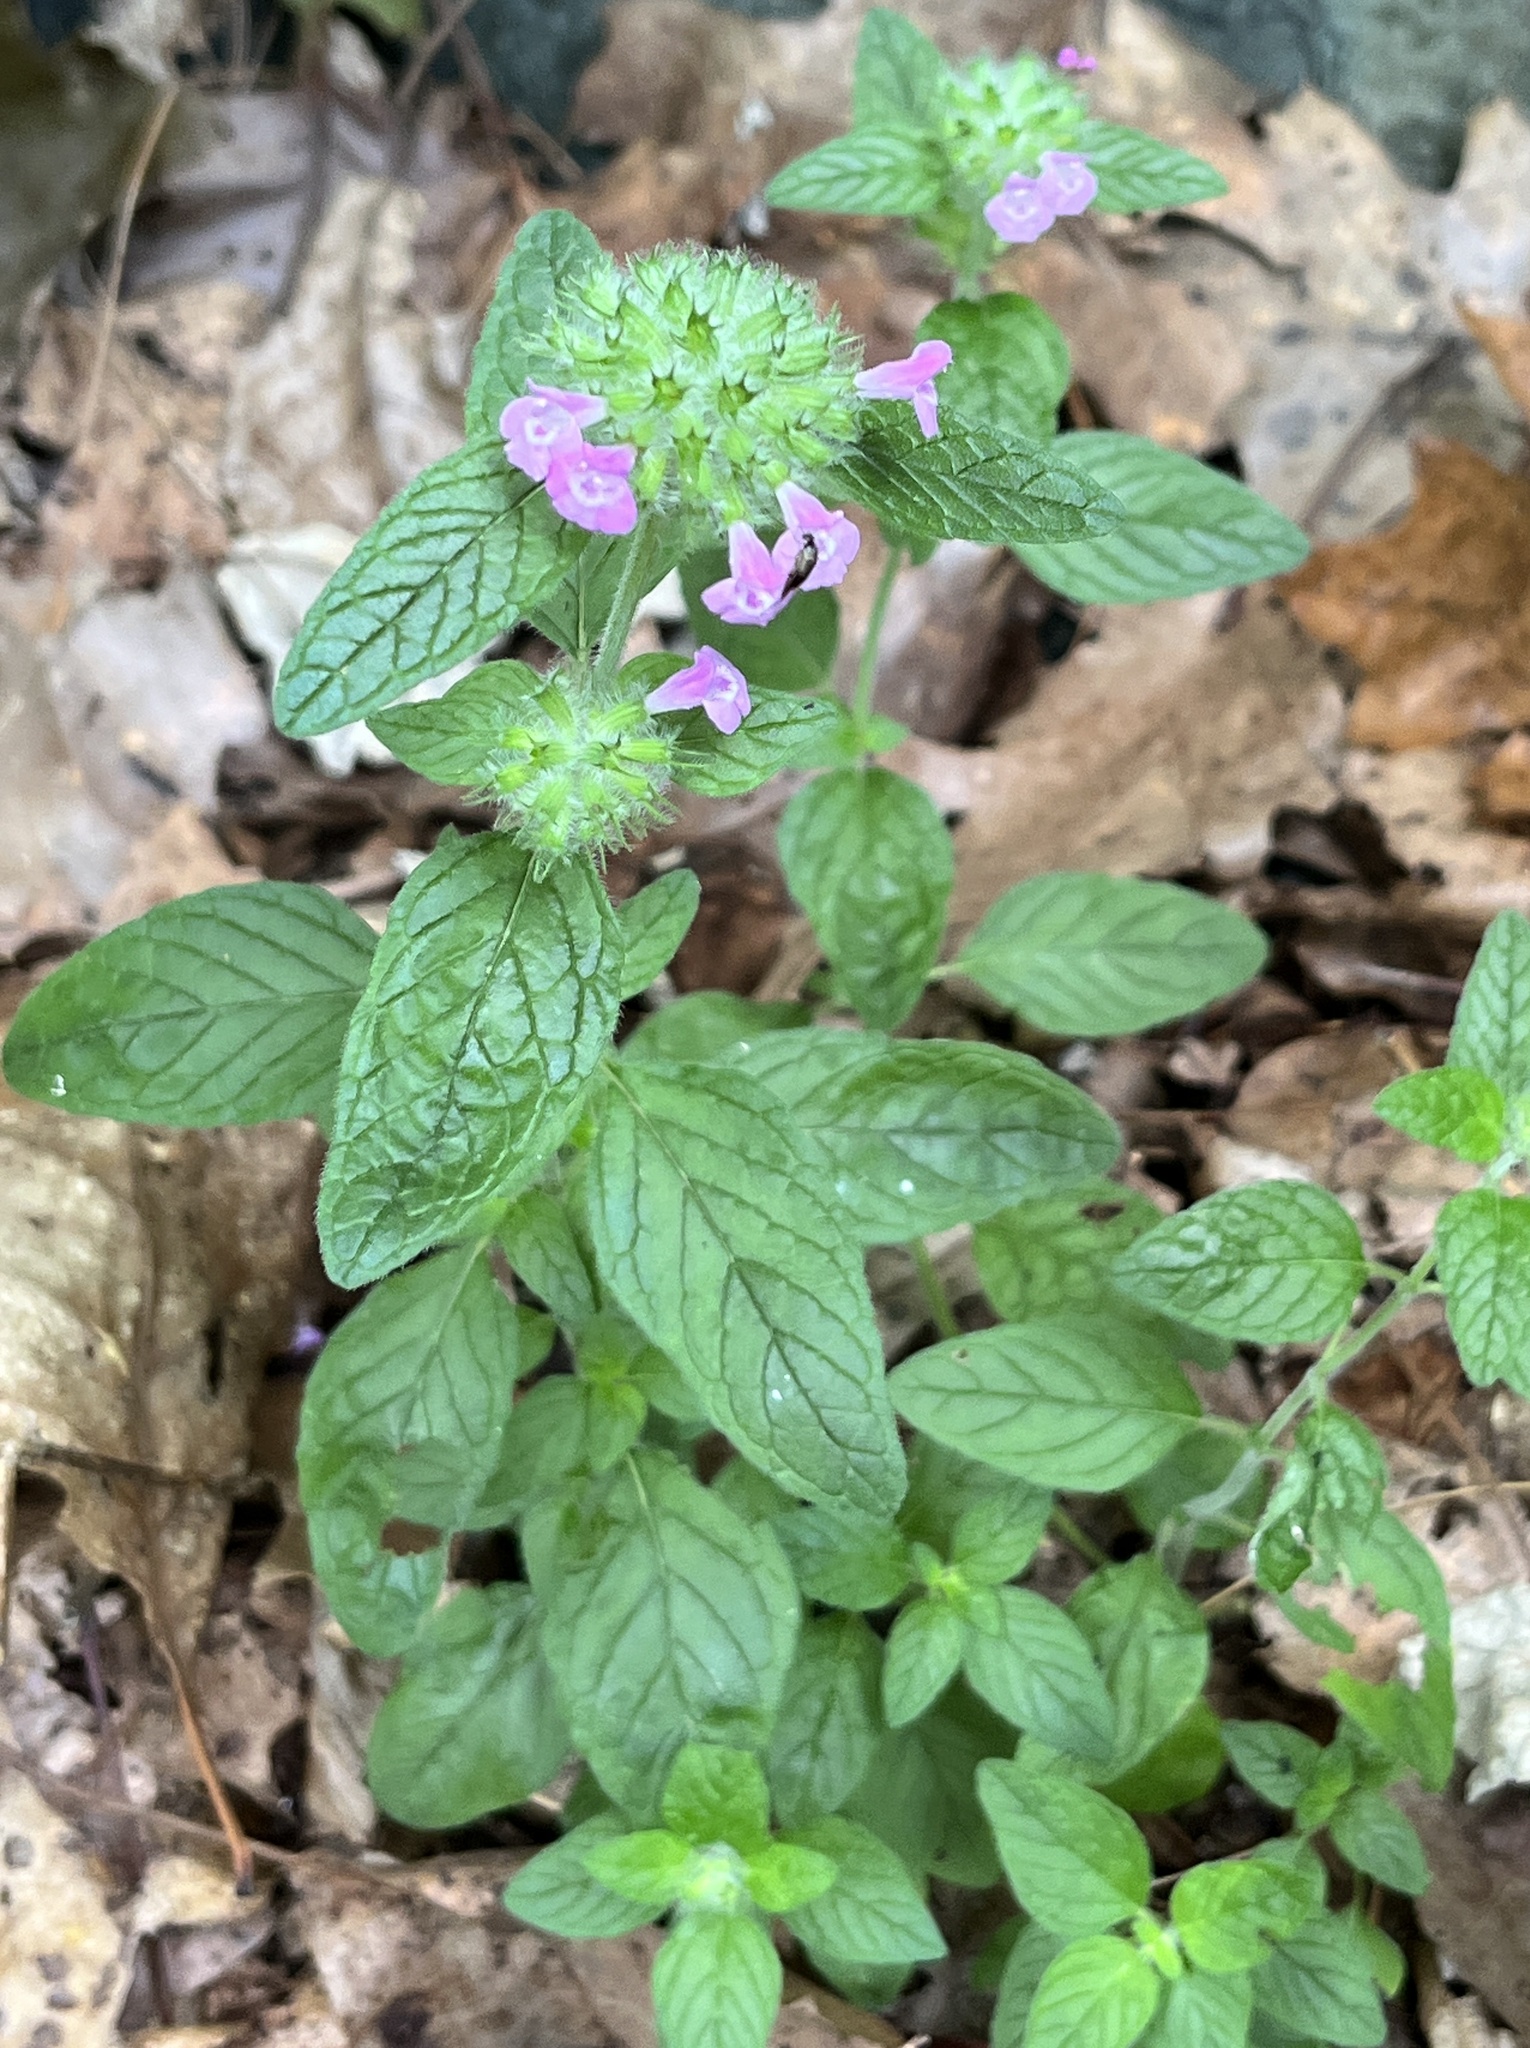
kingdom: Plantae
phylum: Tracheophyta
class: Magnoliopsida
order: Lamiales
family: Lamiaceae
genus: Clinopodium
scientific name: Clinopodium vulgare
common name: Wild basil
